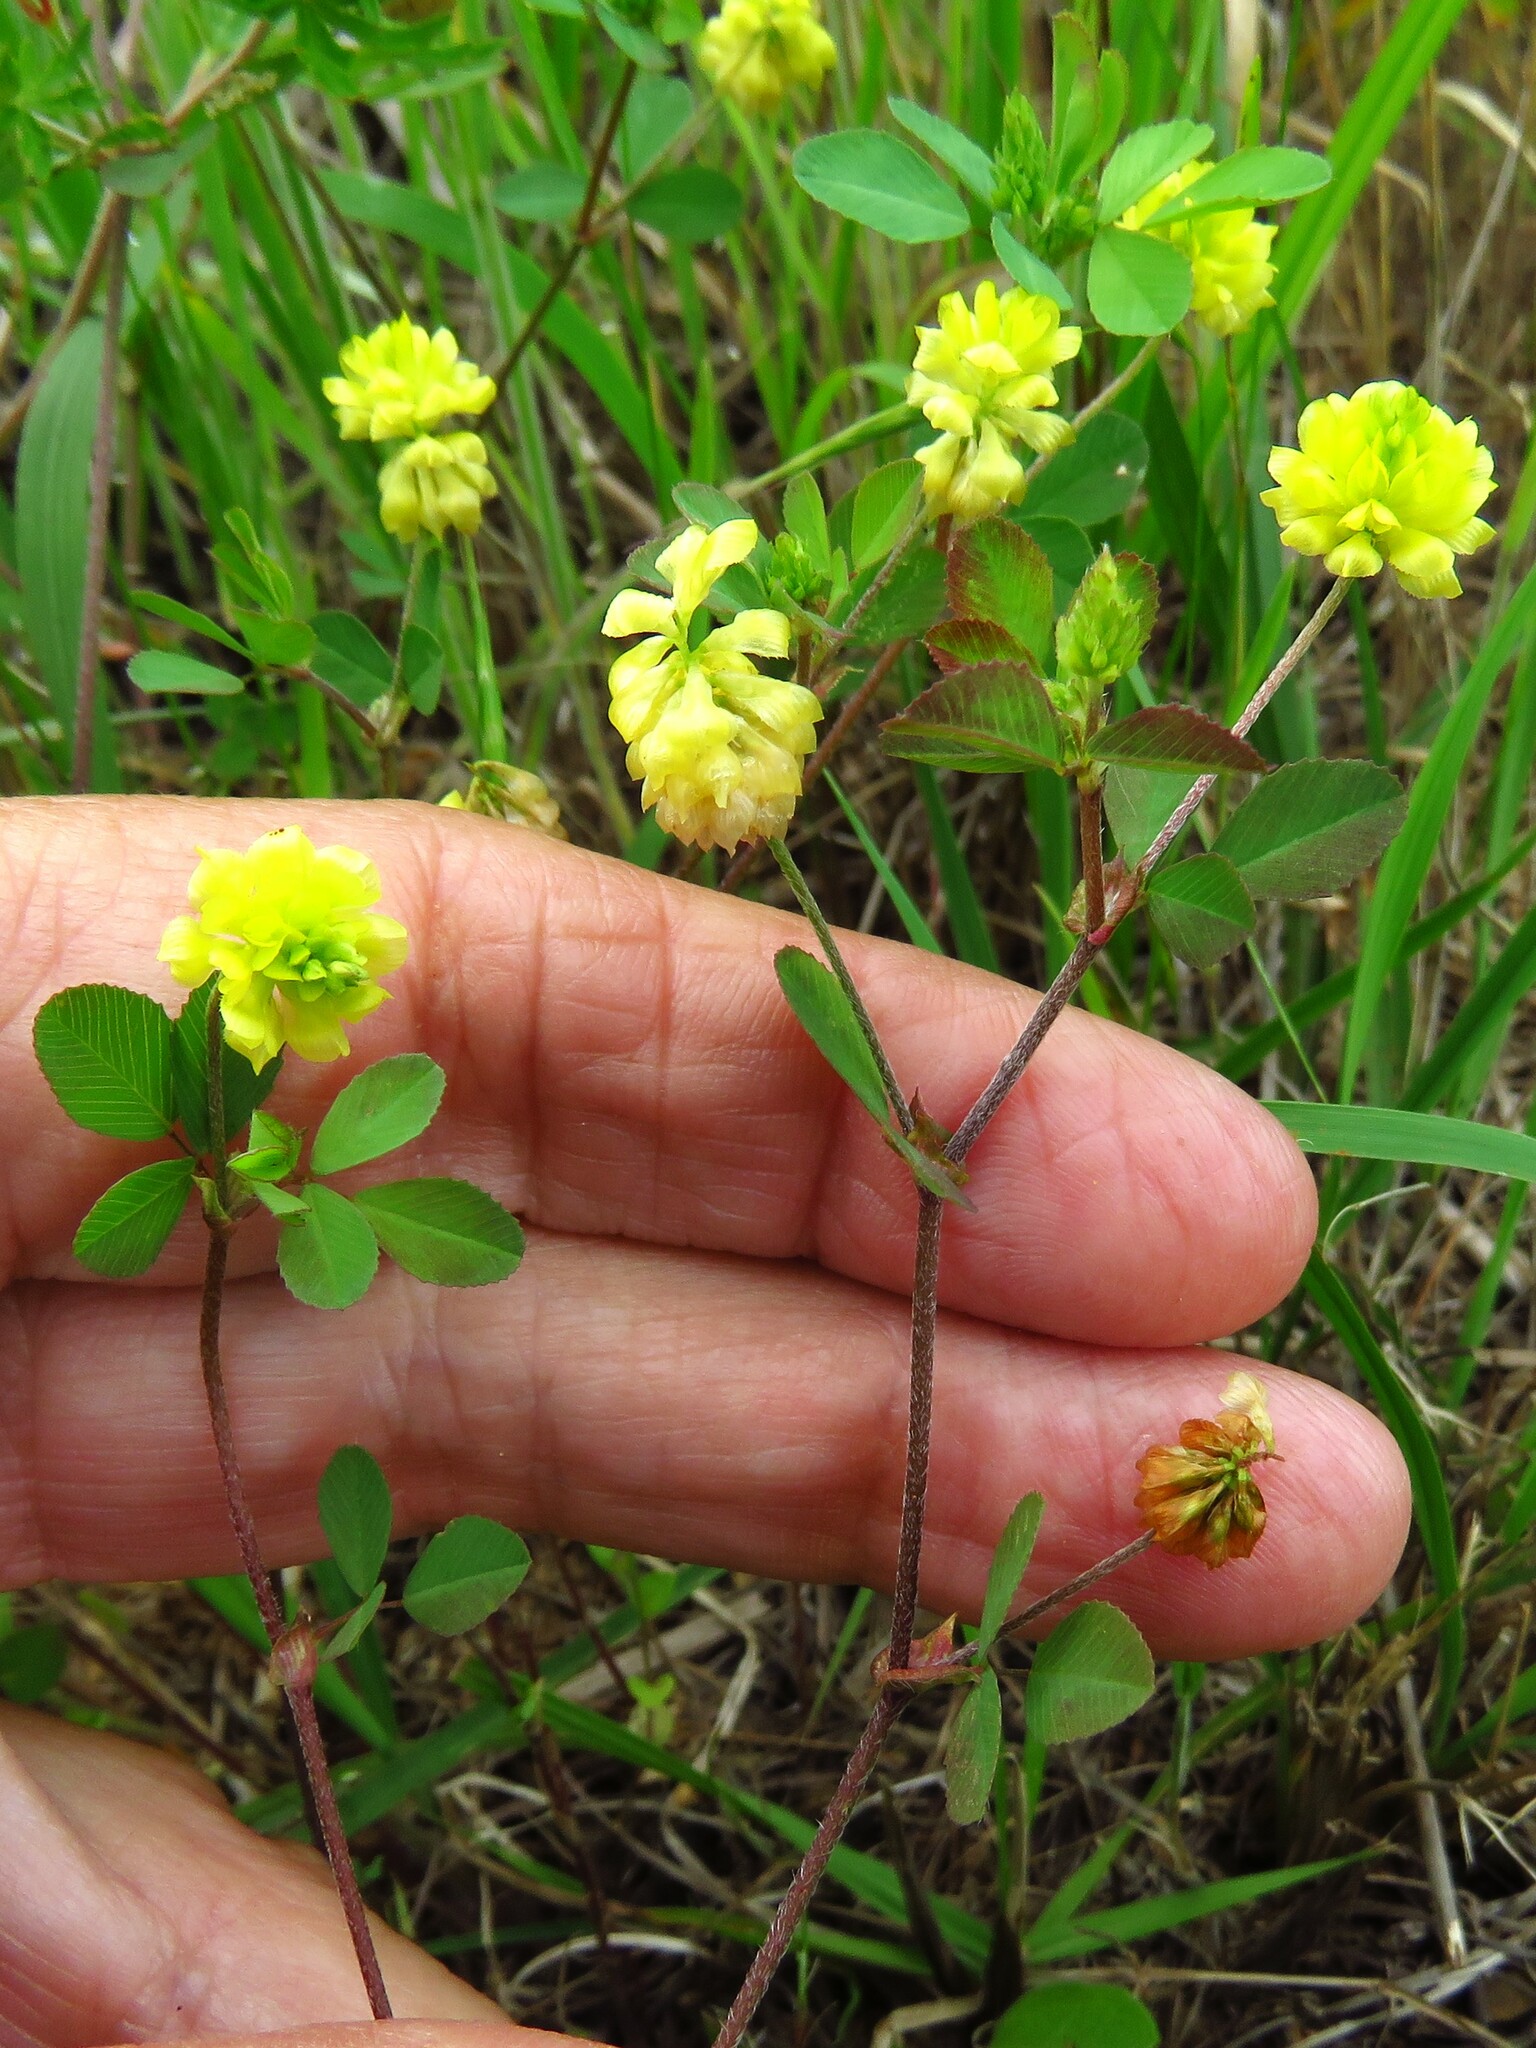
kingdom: Plantae
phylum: Tracheophyta
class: Magnoliopsida
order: Fabales
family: Fabaceae
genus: Trifolium
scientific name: Trifolium campestre
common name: Field clover
